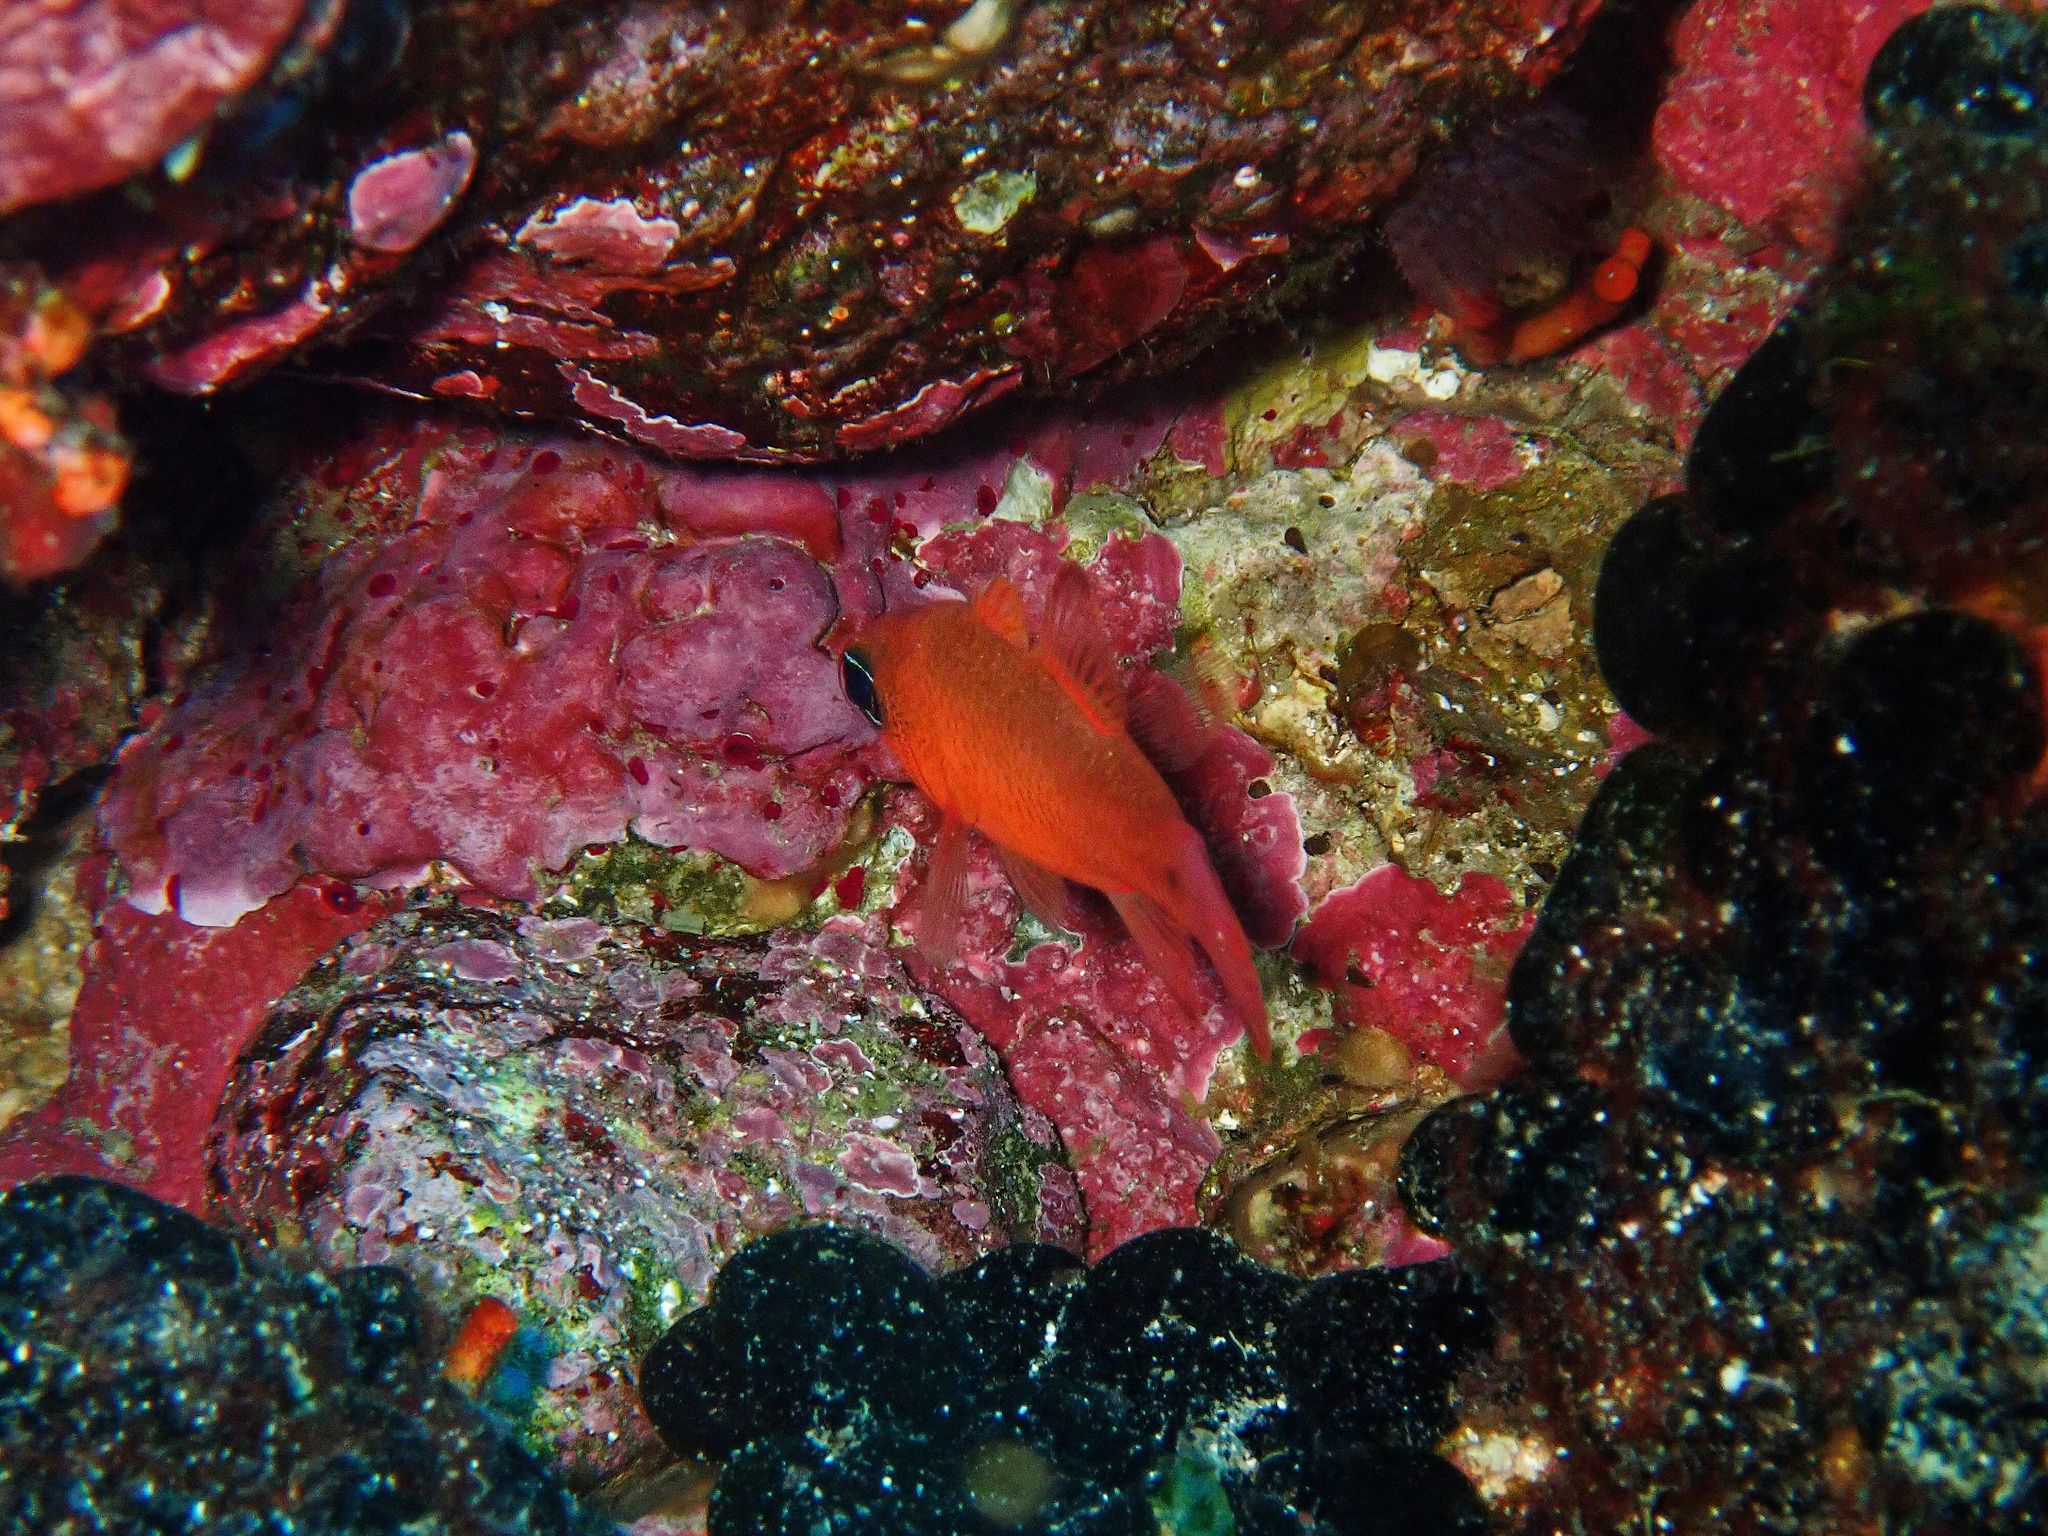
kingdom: Animalia
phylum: Chordata
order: Perciformes
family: Apogonidae
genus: Apogon
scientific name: Apogon imberbis
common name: Cardinal fish
